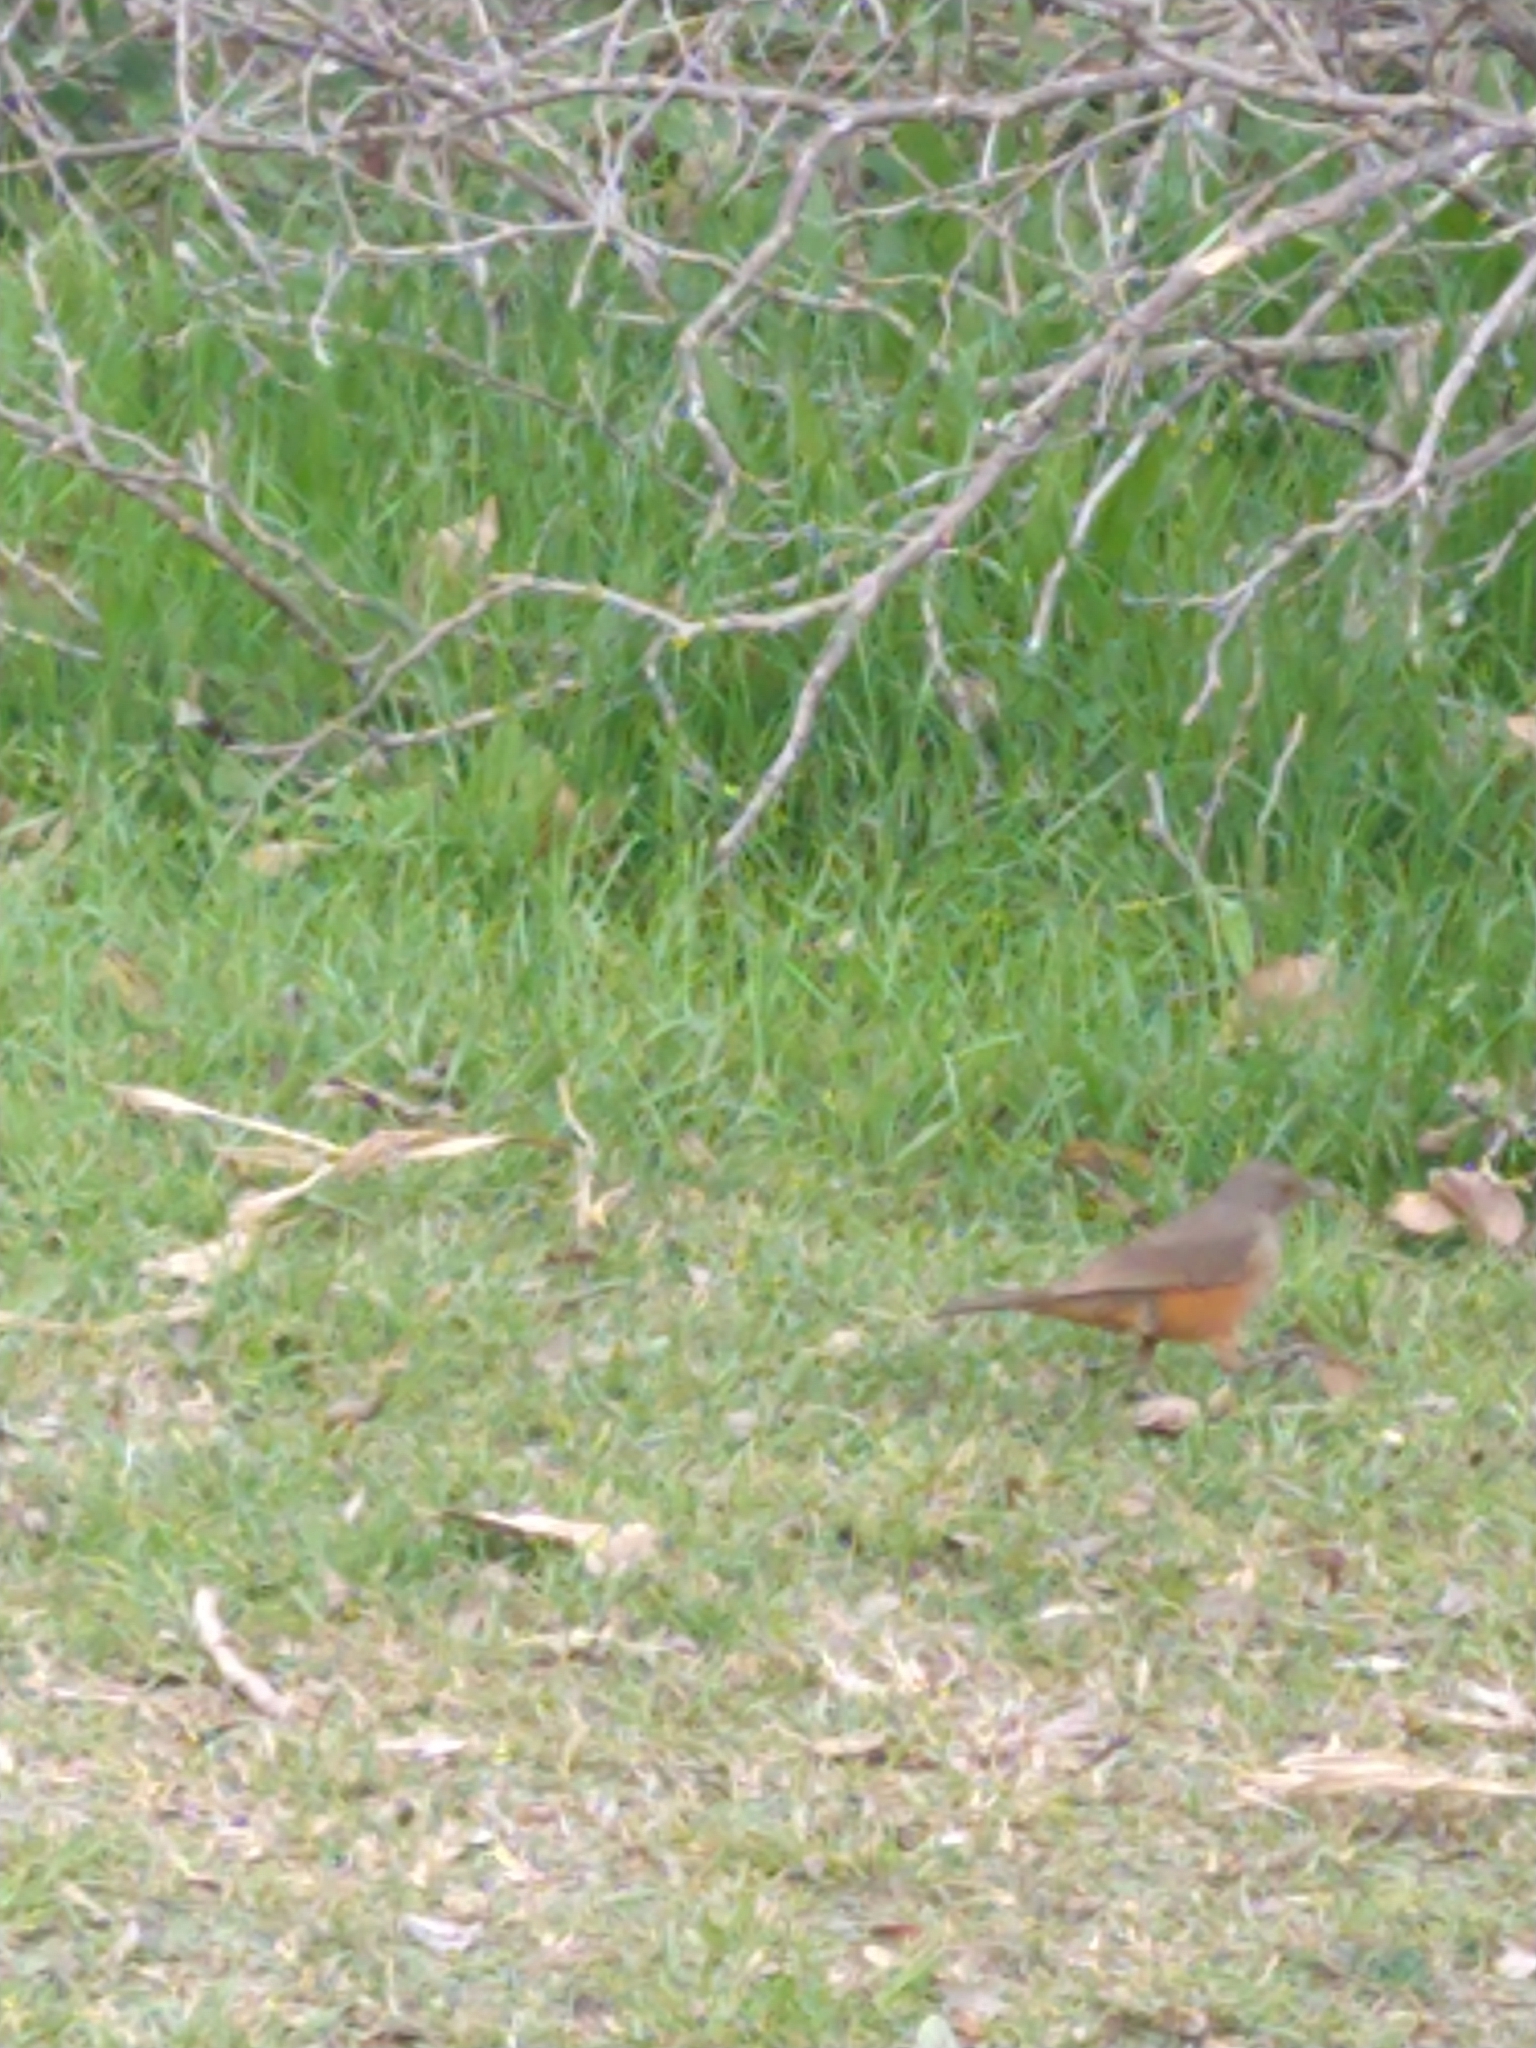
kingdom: Animalia
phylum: Chordata
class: Aves
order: Passeriformes
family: Turdidae
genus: Turdus
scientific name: Turdus rufiventris
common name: Rufous-bellied thrush
